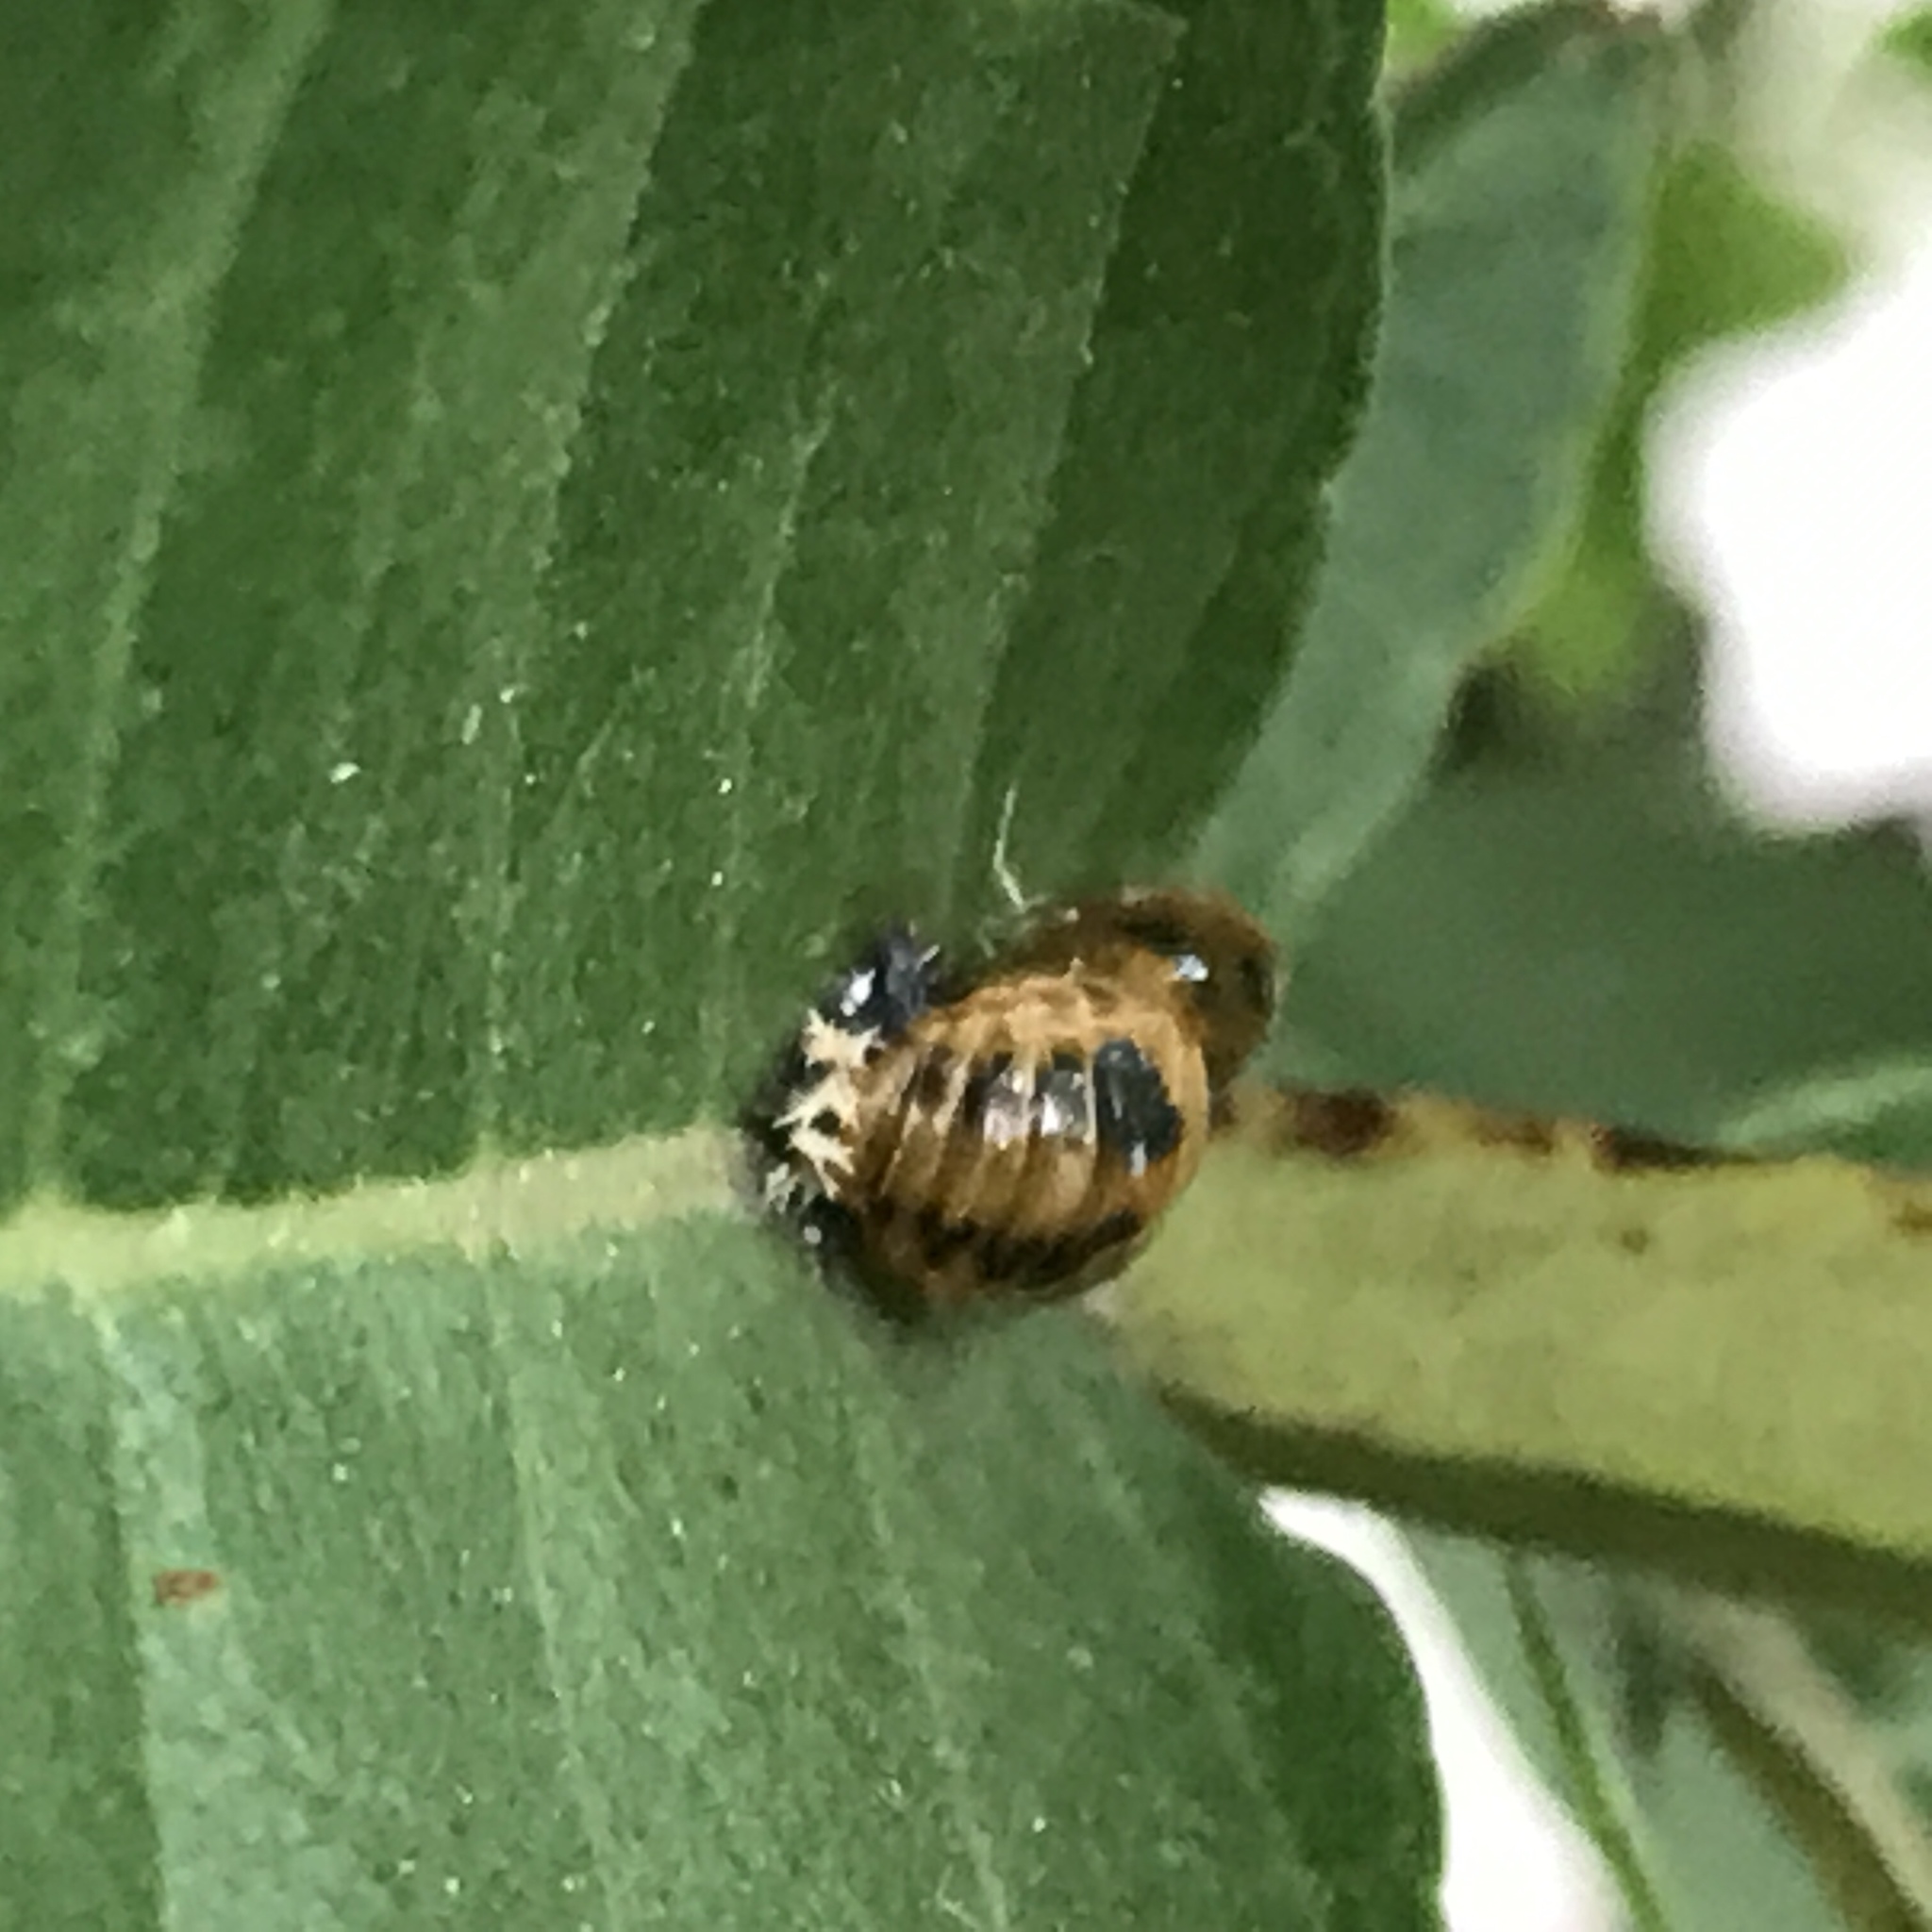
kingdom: Animalia
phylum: Arthropoda
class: Insecta
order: Coleoptera
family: Coccinellidae
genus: Harmonia
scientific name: Harmonia axyridis
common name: Harlequin ladybird
